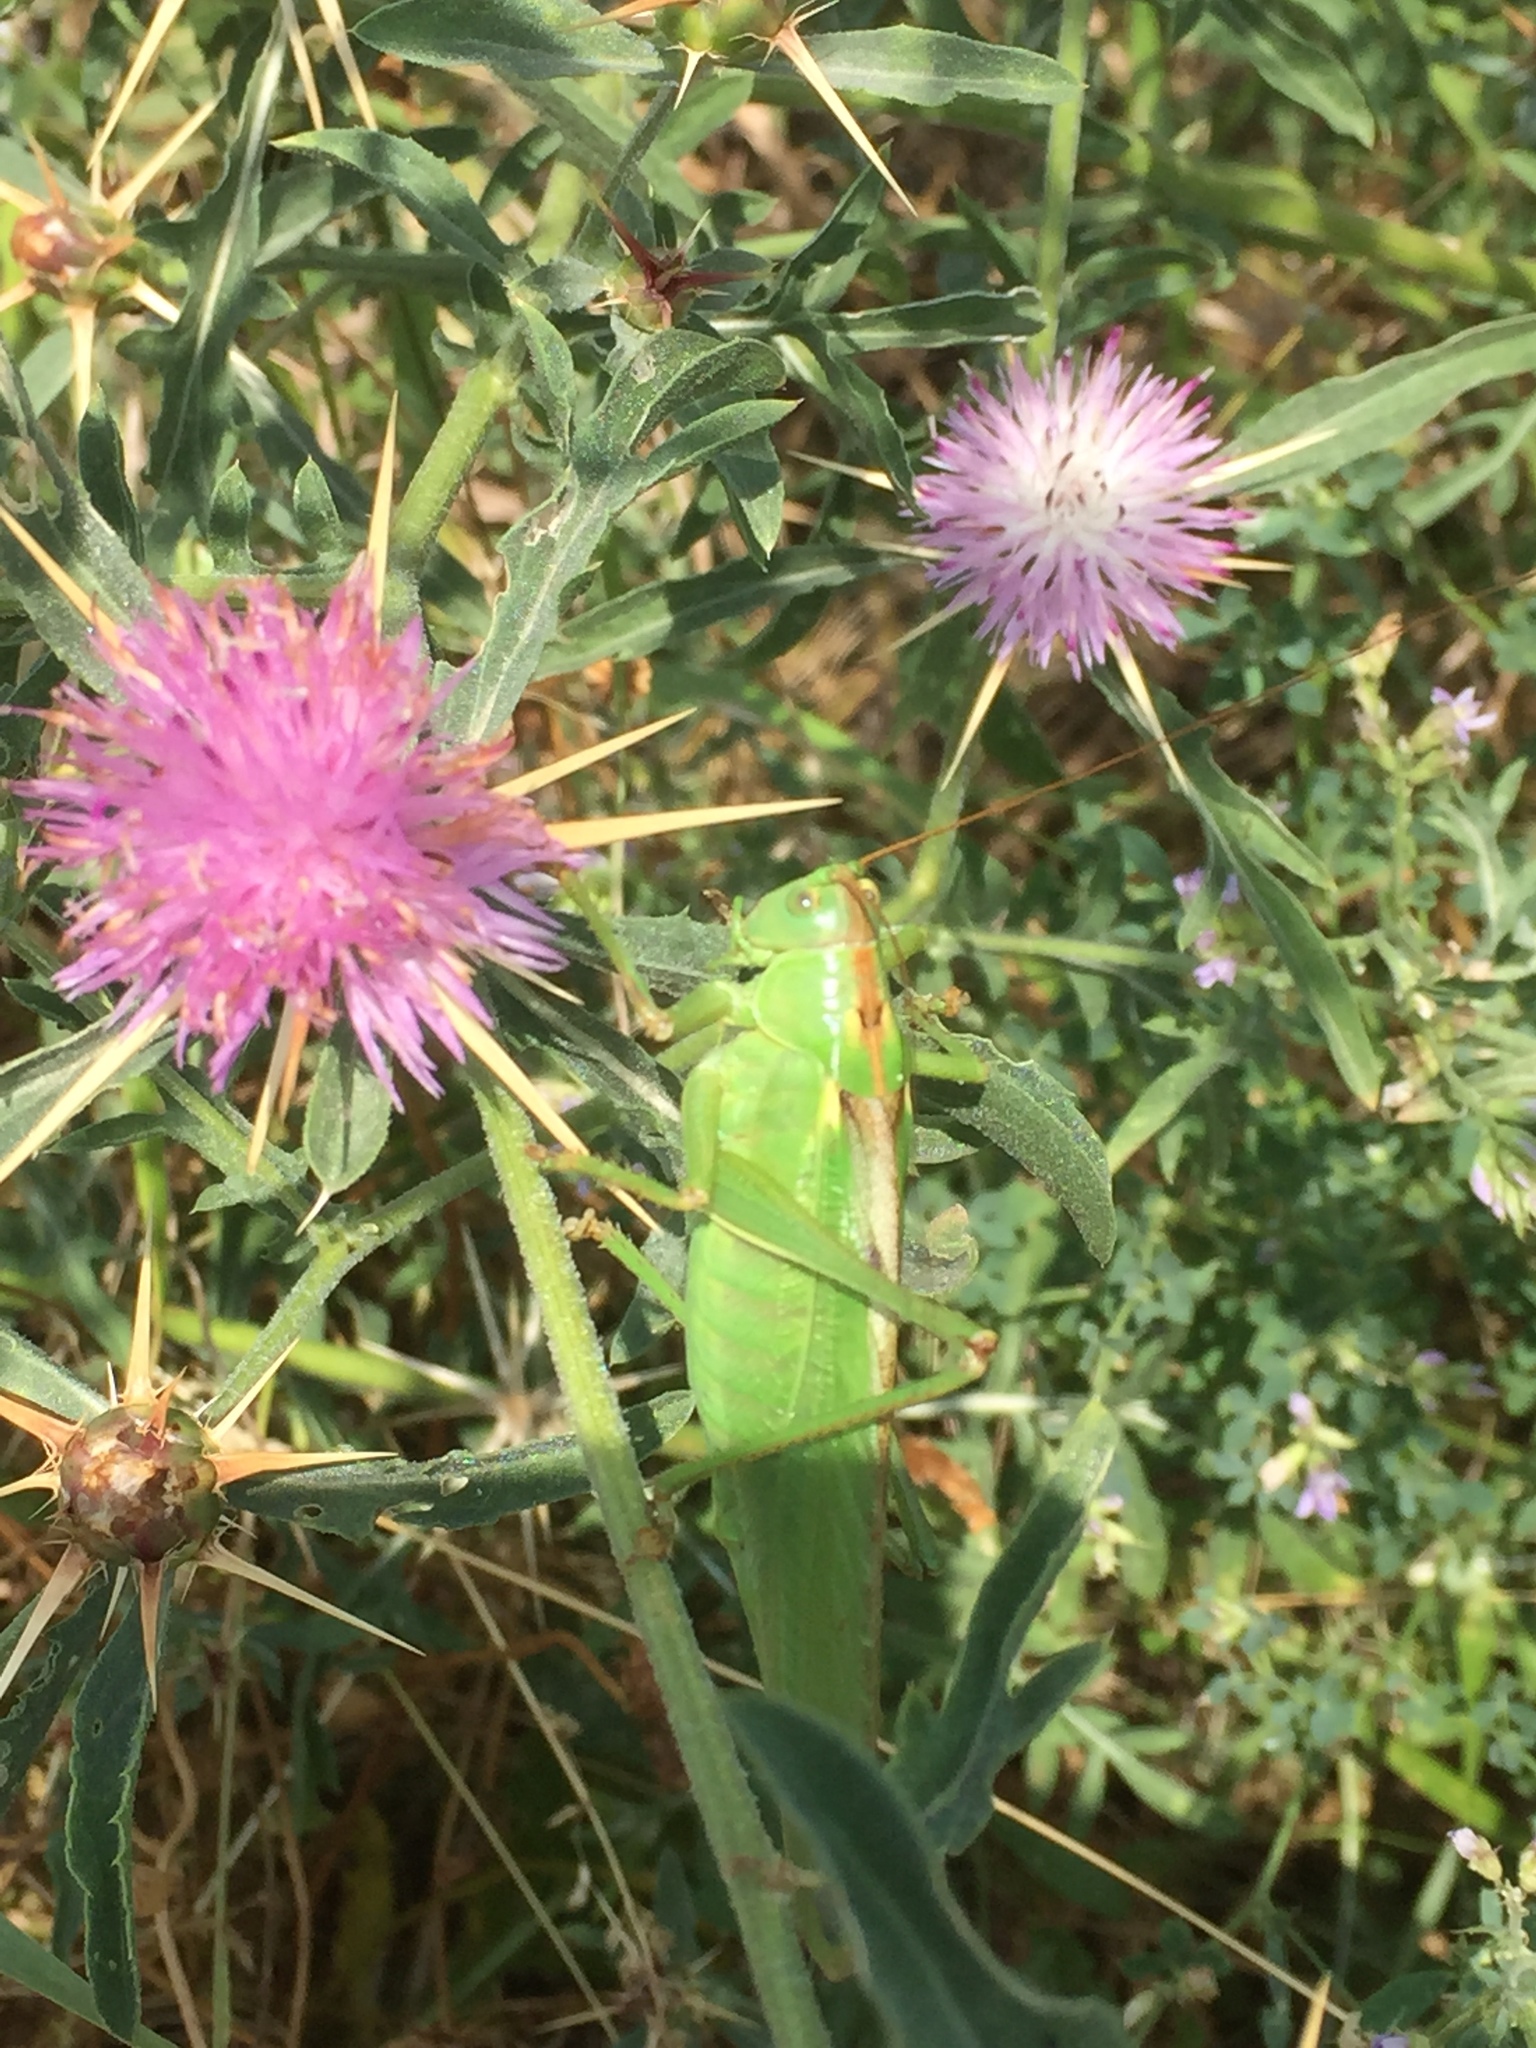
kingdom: Animalia
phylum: Arthropoda
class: Insecta
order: Orthoptera
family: Tettigoniidae
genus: Tettigonia
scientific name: Tettigonia viridissima
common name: Great green bush-cricket
